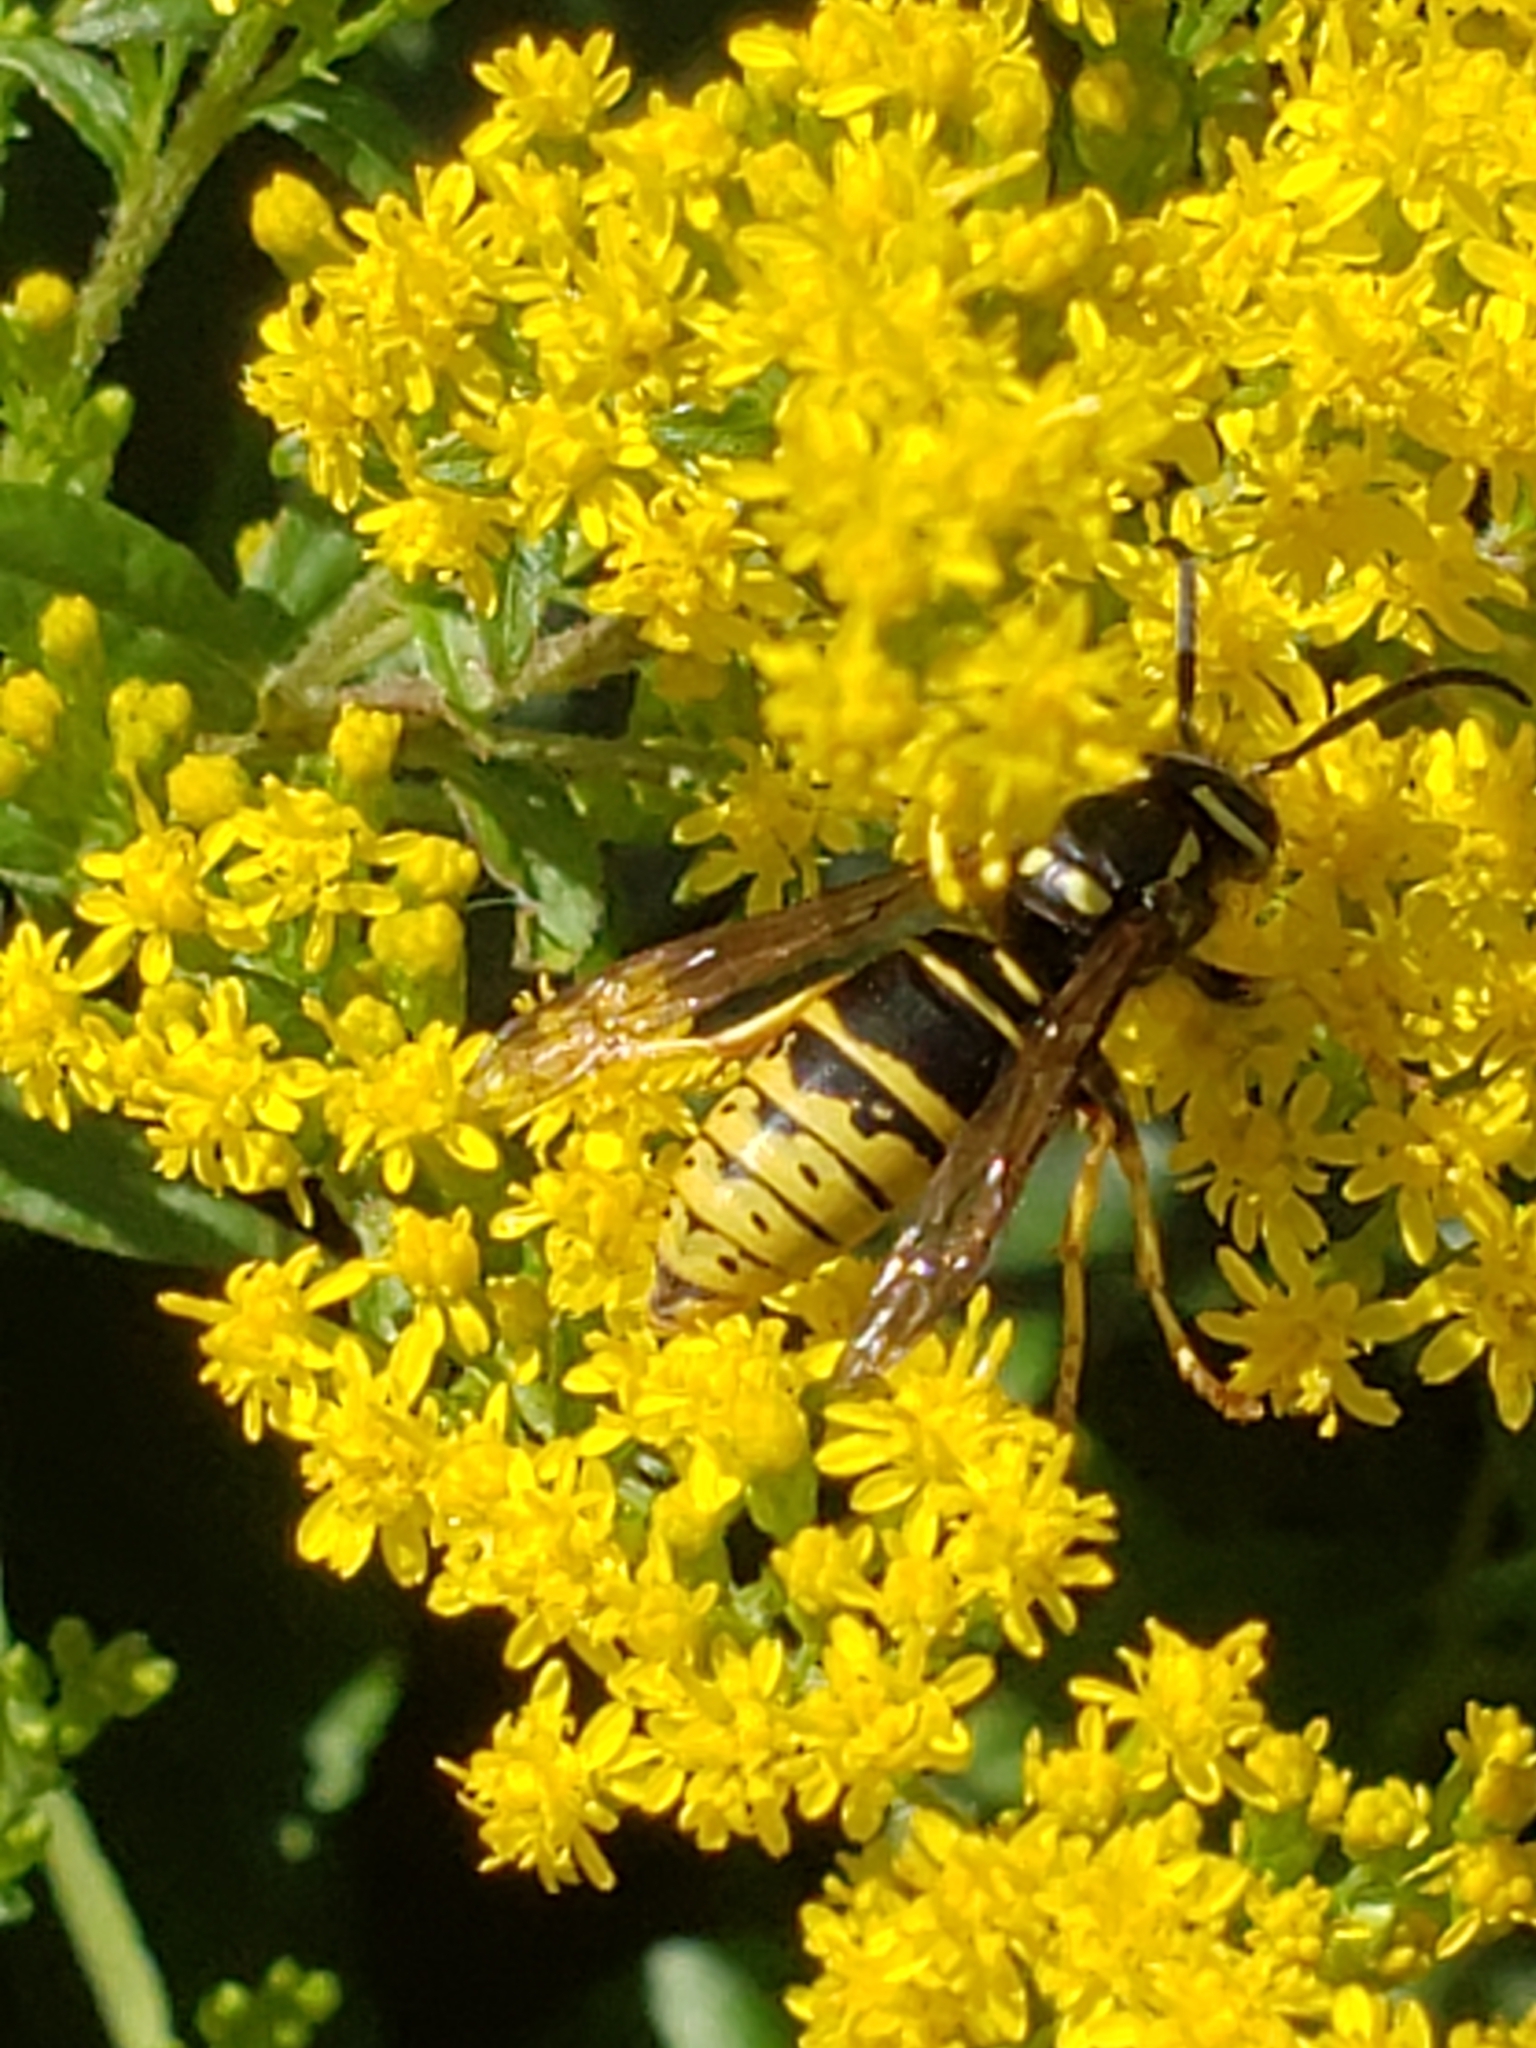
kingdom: Animalia
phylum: Arthropoda
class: Insecta
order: Hymenoptera
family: Vespidae
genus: Vespula
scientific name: Vespula vidua
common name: Widow yellowjacket
